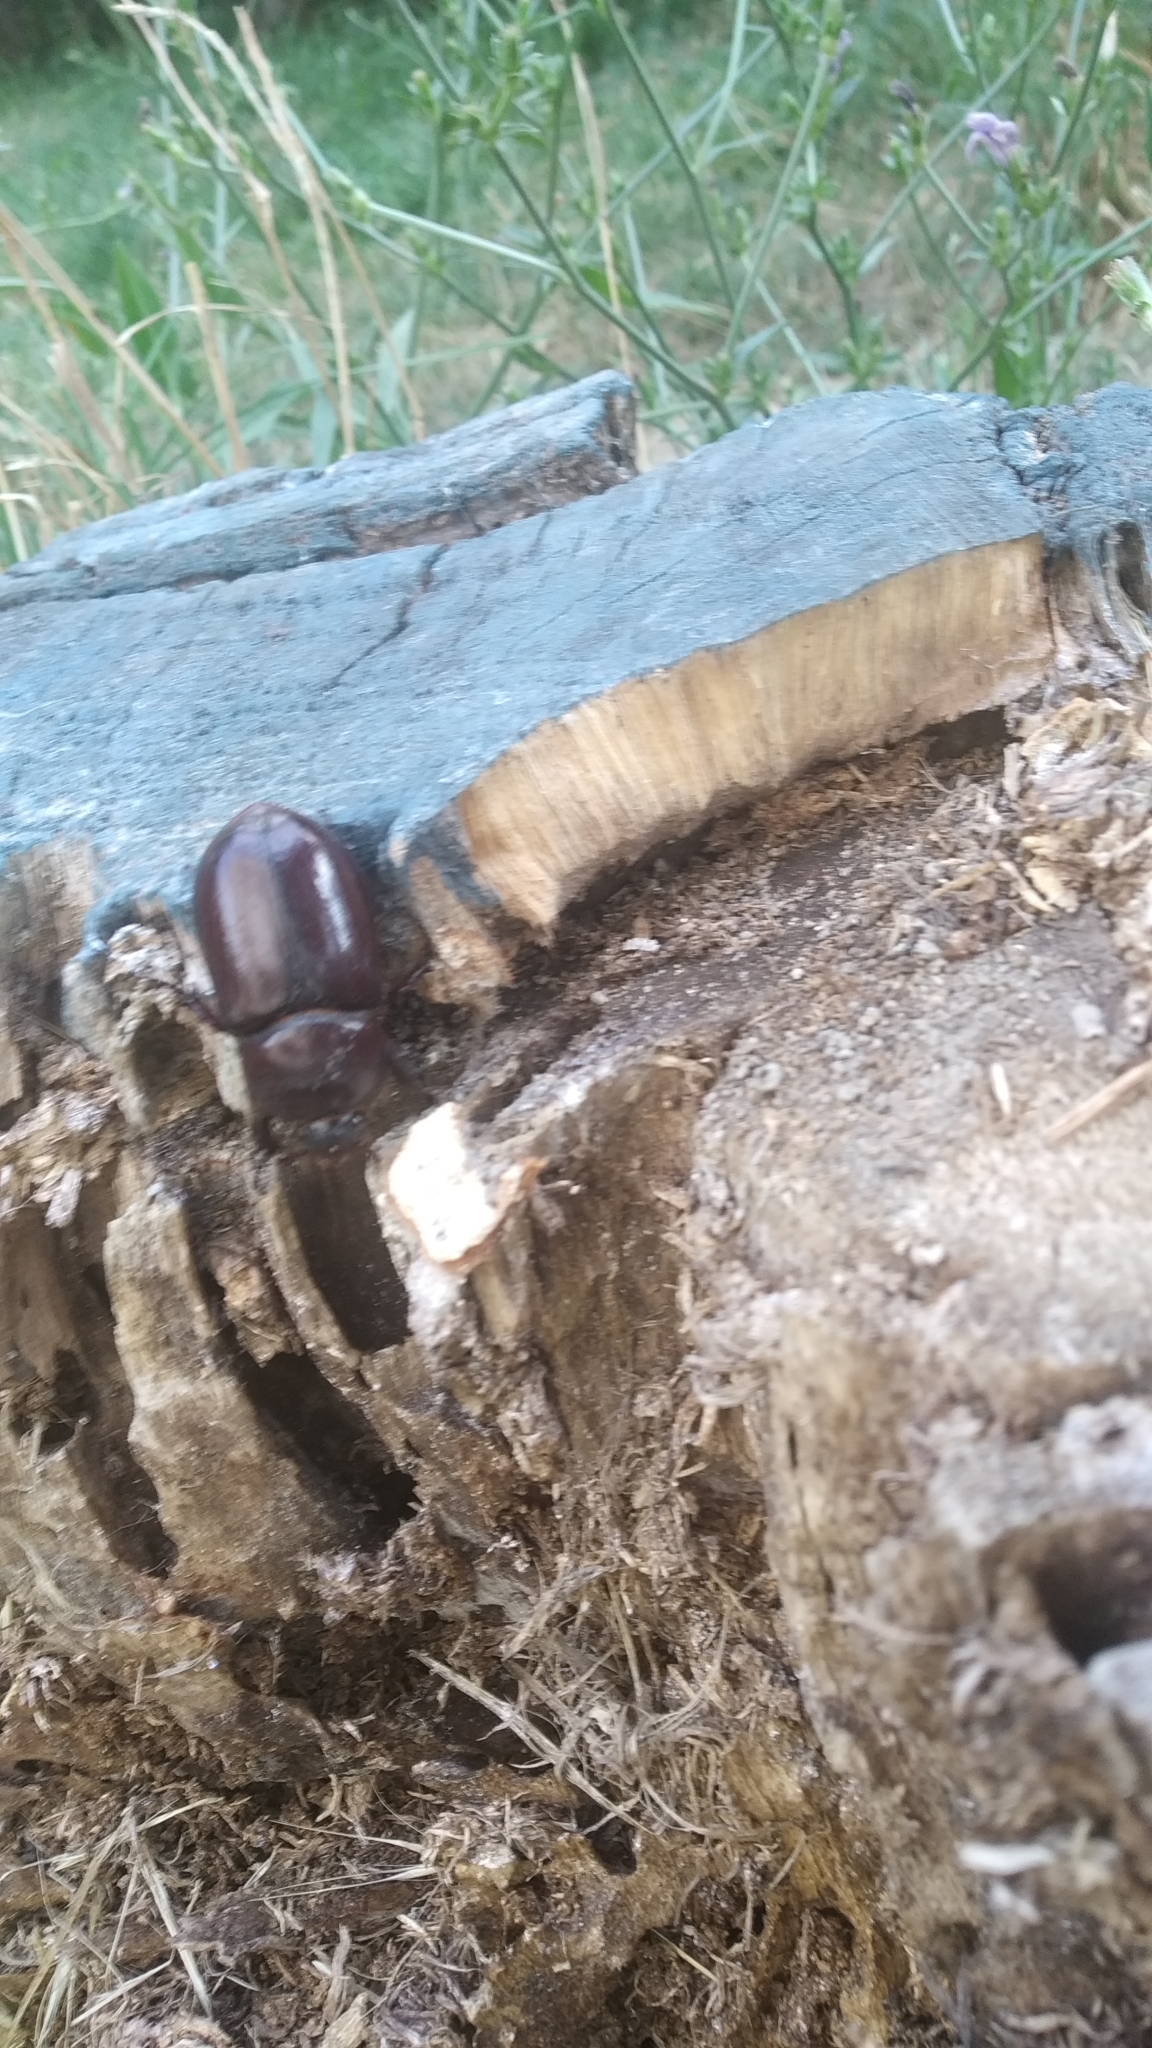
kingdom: Animalia
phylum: Arthropoda
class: Insecta
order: Coleoptera
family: Scarabaeidae
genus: Oryctes
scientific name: Oryctes nasicornis
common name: European rhinoceros beetle
